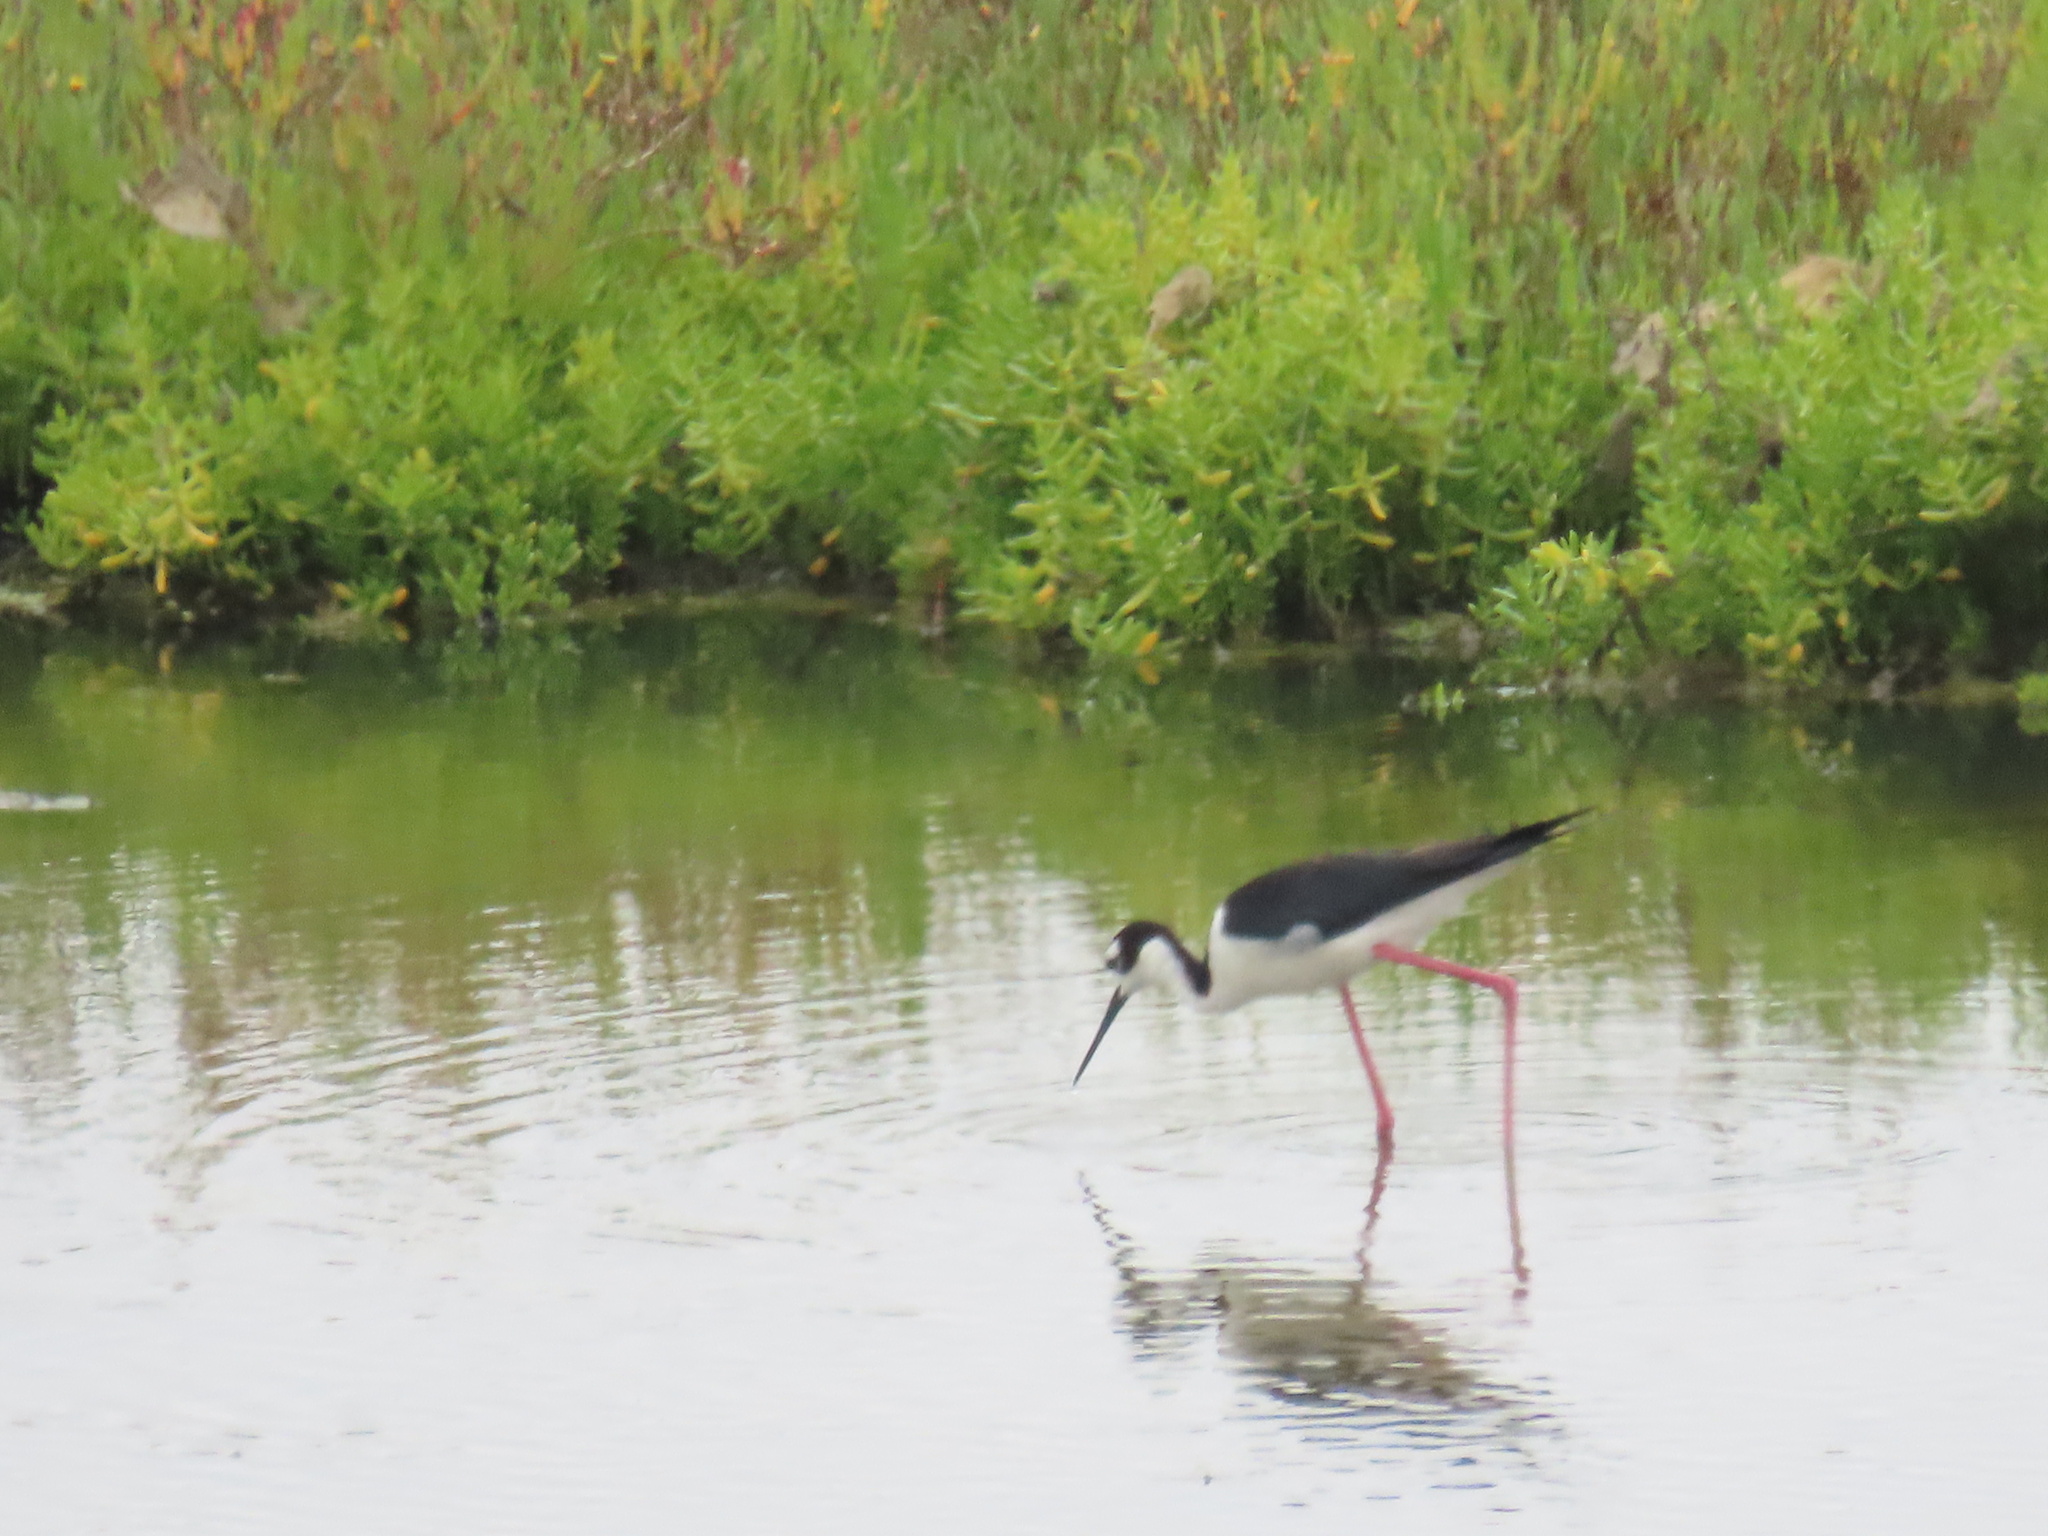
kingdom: Animalia
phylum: Chordata
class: Aves
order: Charadriiformes
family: Recurvirostridae
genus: Himantopus
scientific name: Himantopus mexicanus
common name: Black-necked stilt
